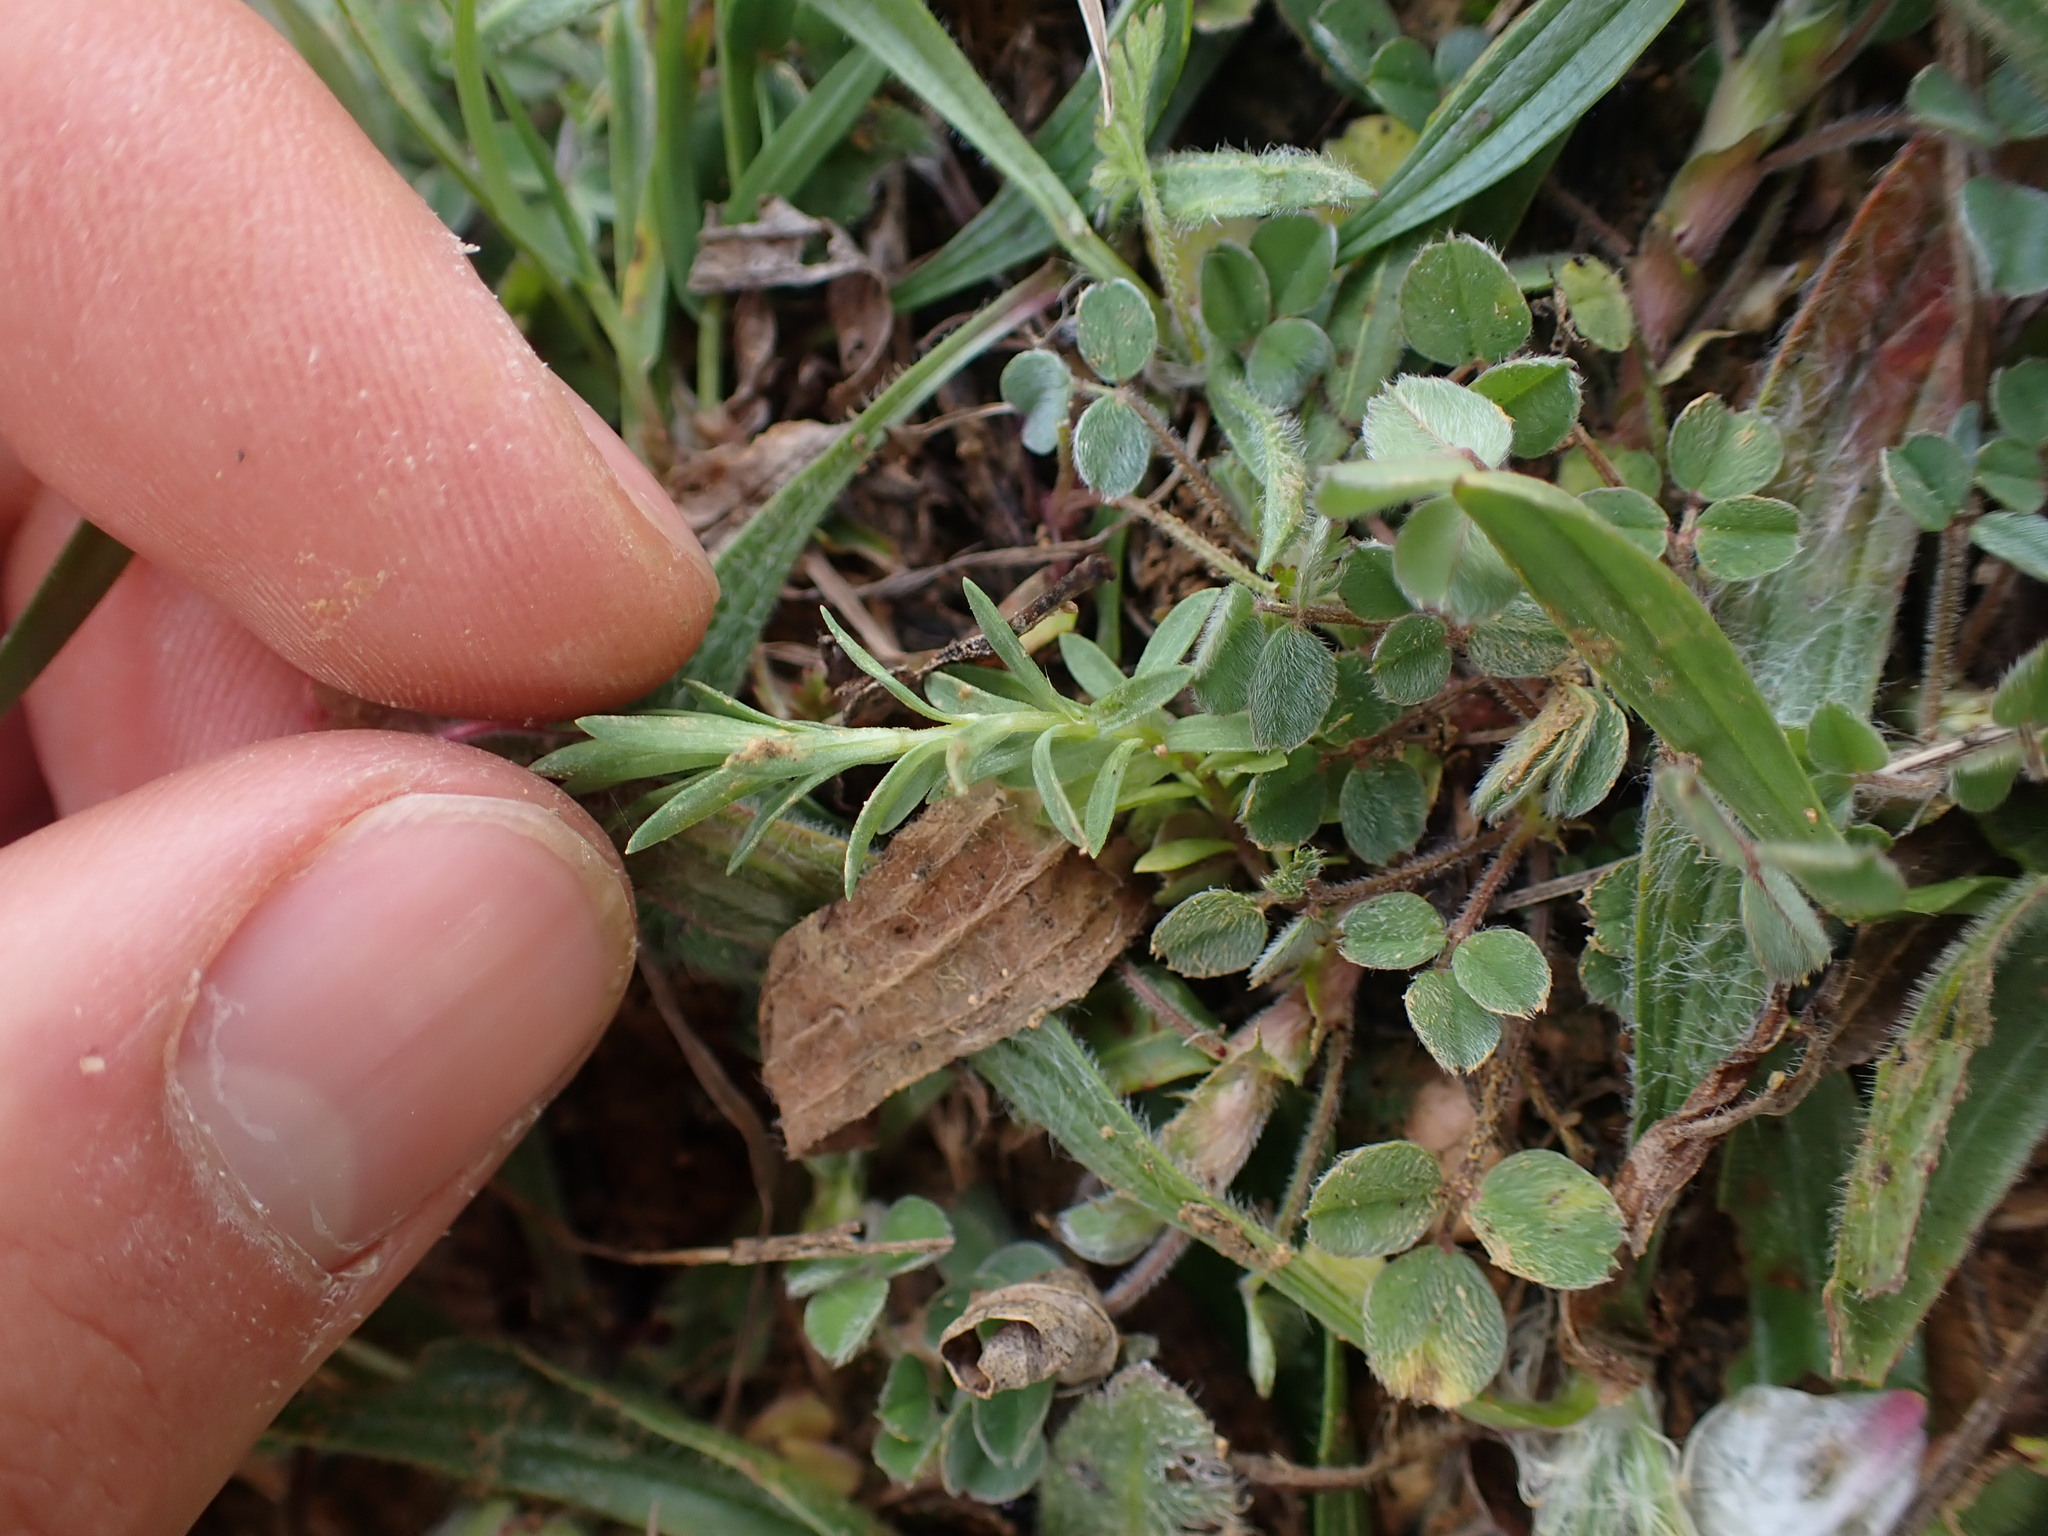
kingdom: Plantae
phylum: Tracheophyta
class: Magnoliopsida
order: Malpighiales
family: Linaceae
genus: Linum
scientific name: Linum strictum
